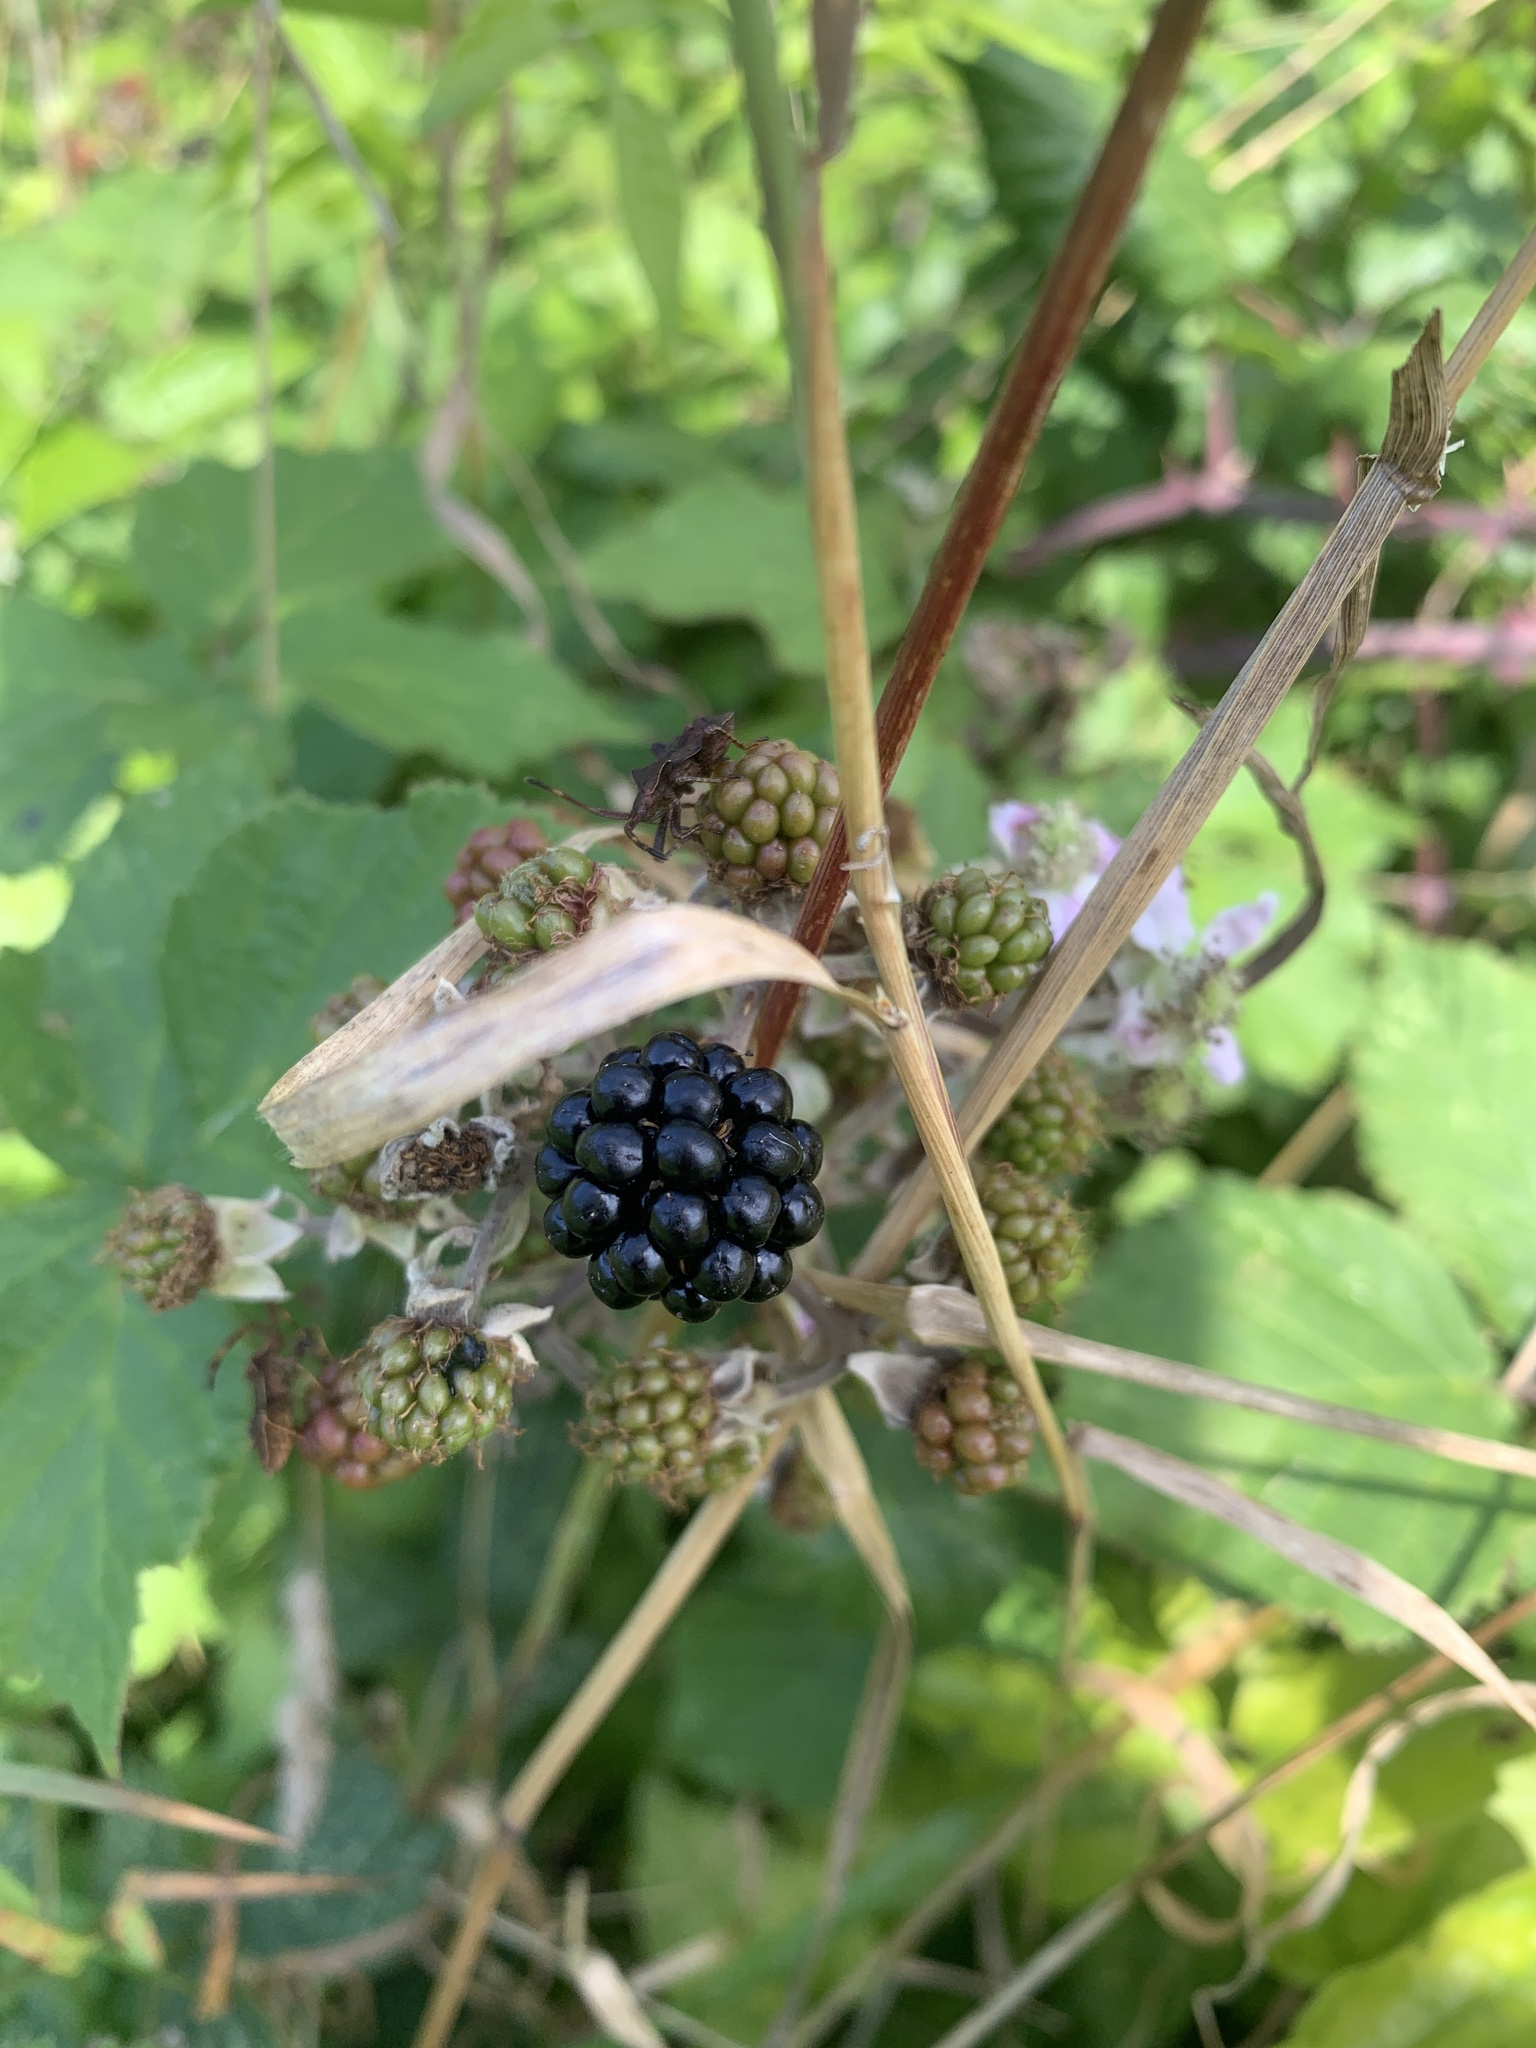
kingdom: Plantae
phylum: Tracheophyta
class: Magnoliopsida
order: Rosales
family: Rosaceae
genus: Rubus
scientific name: Rubus fruticosus
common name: Blackberry, bramble
